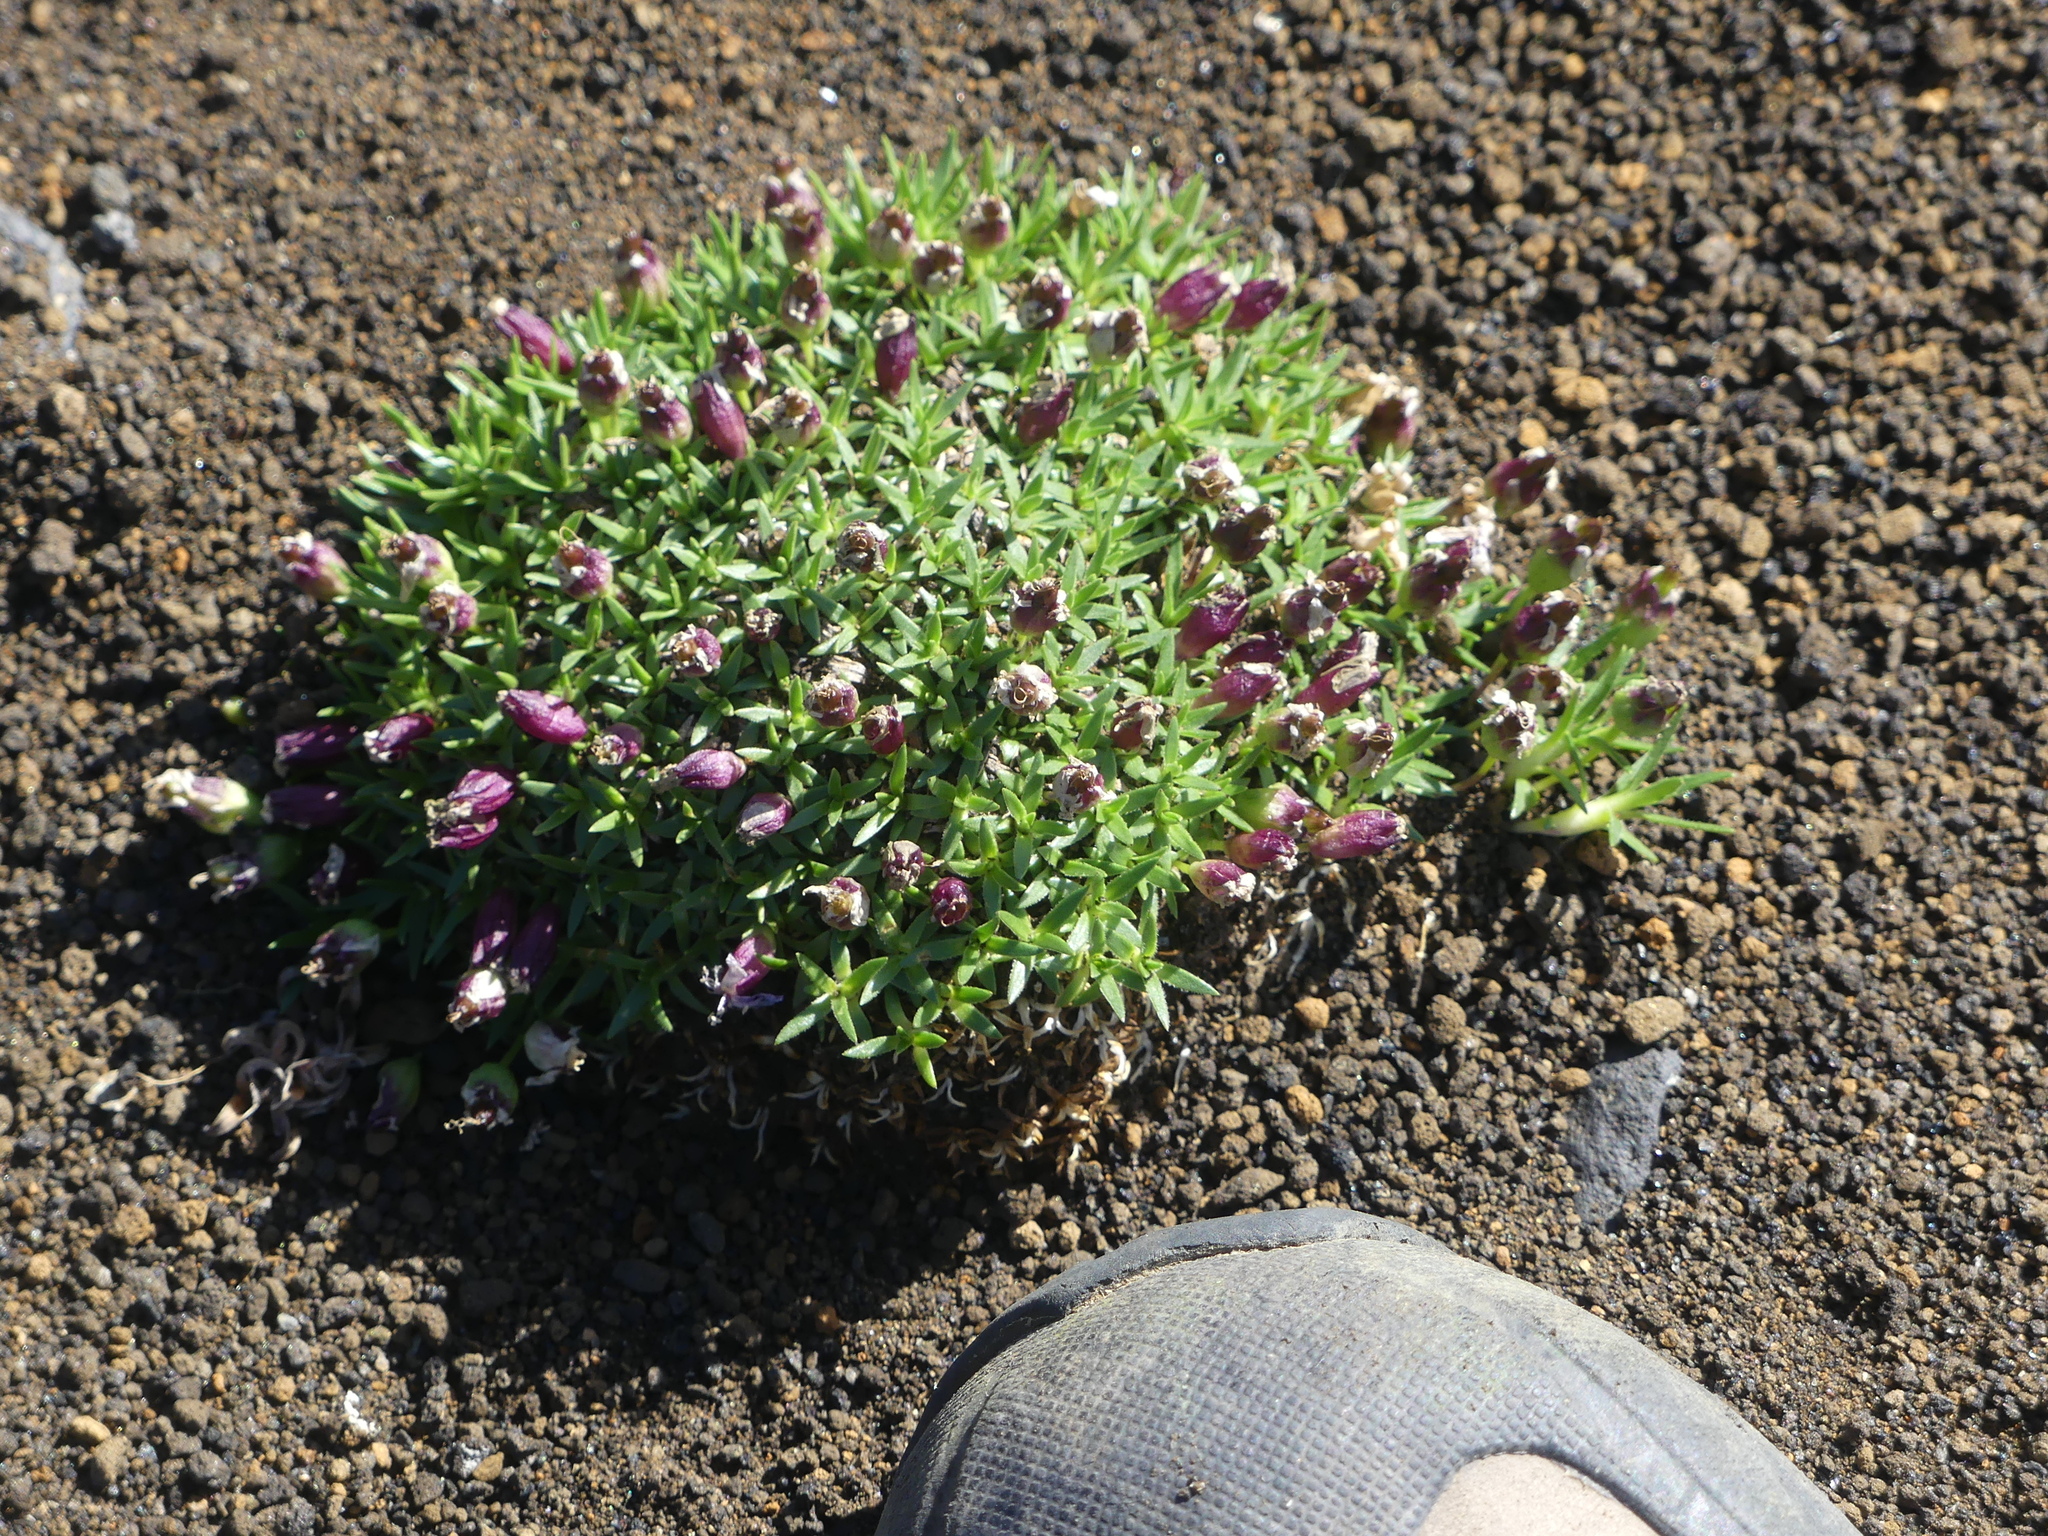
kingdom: Plantae
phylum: Tracheophyta
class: Magnoliopsida
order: Caryophyllales
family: Caryophyllaceae
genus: Silene
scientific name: Silene acaulis
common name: Moss campion
